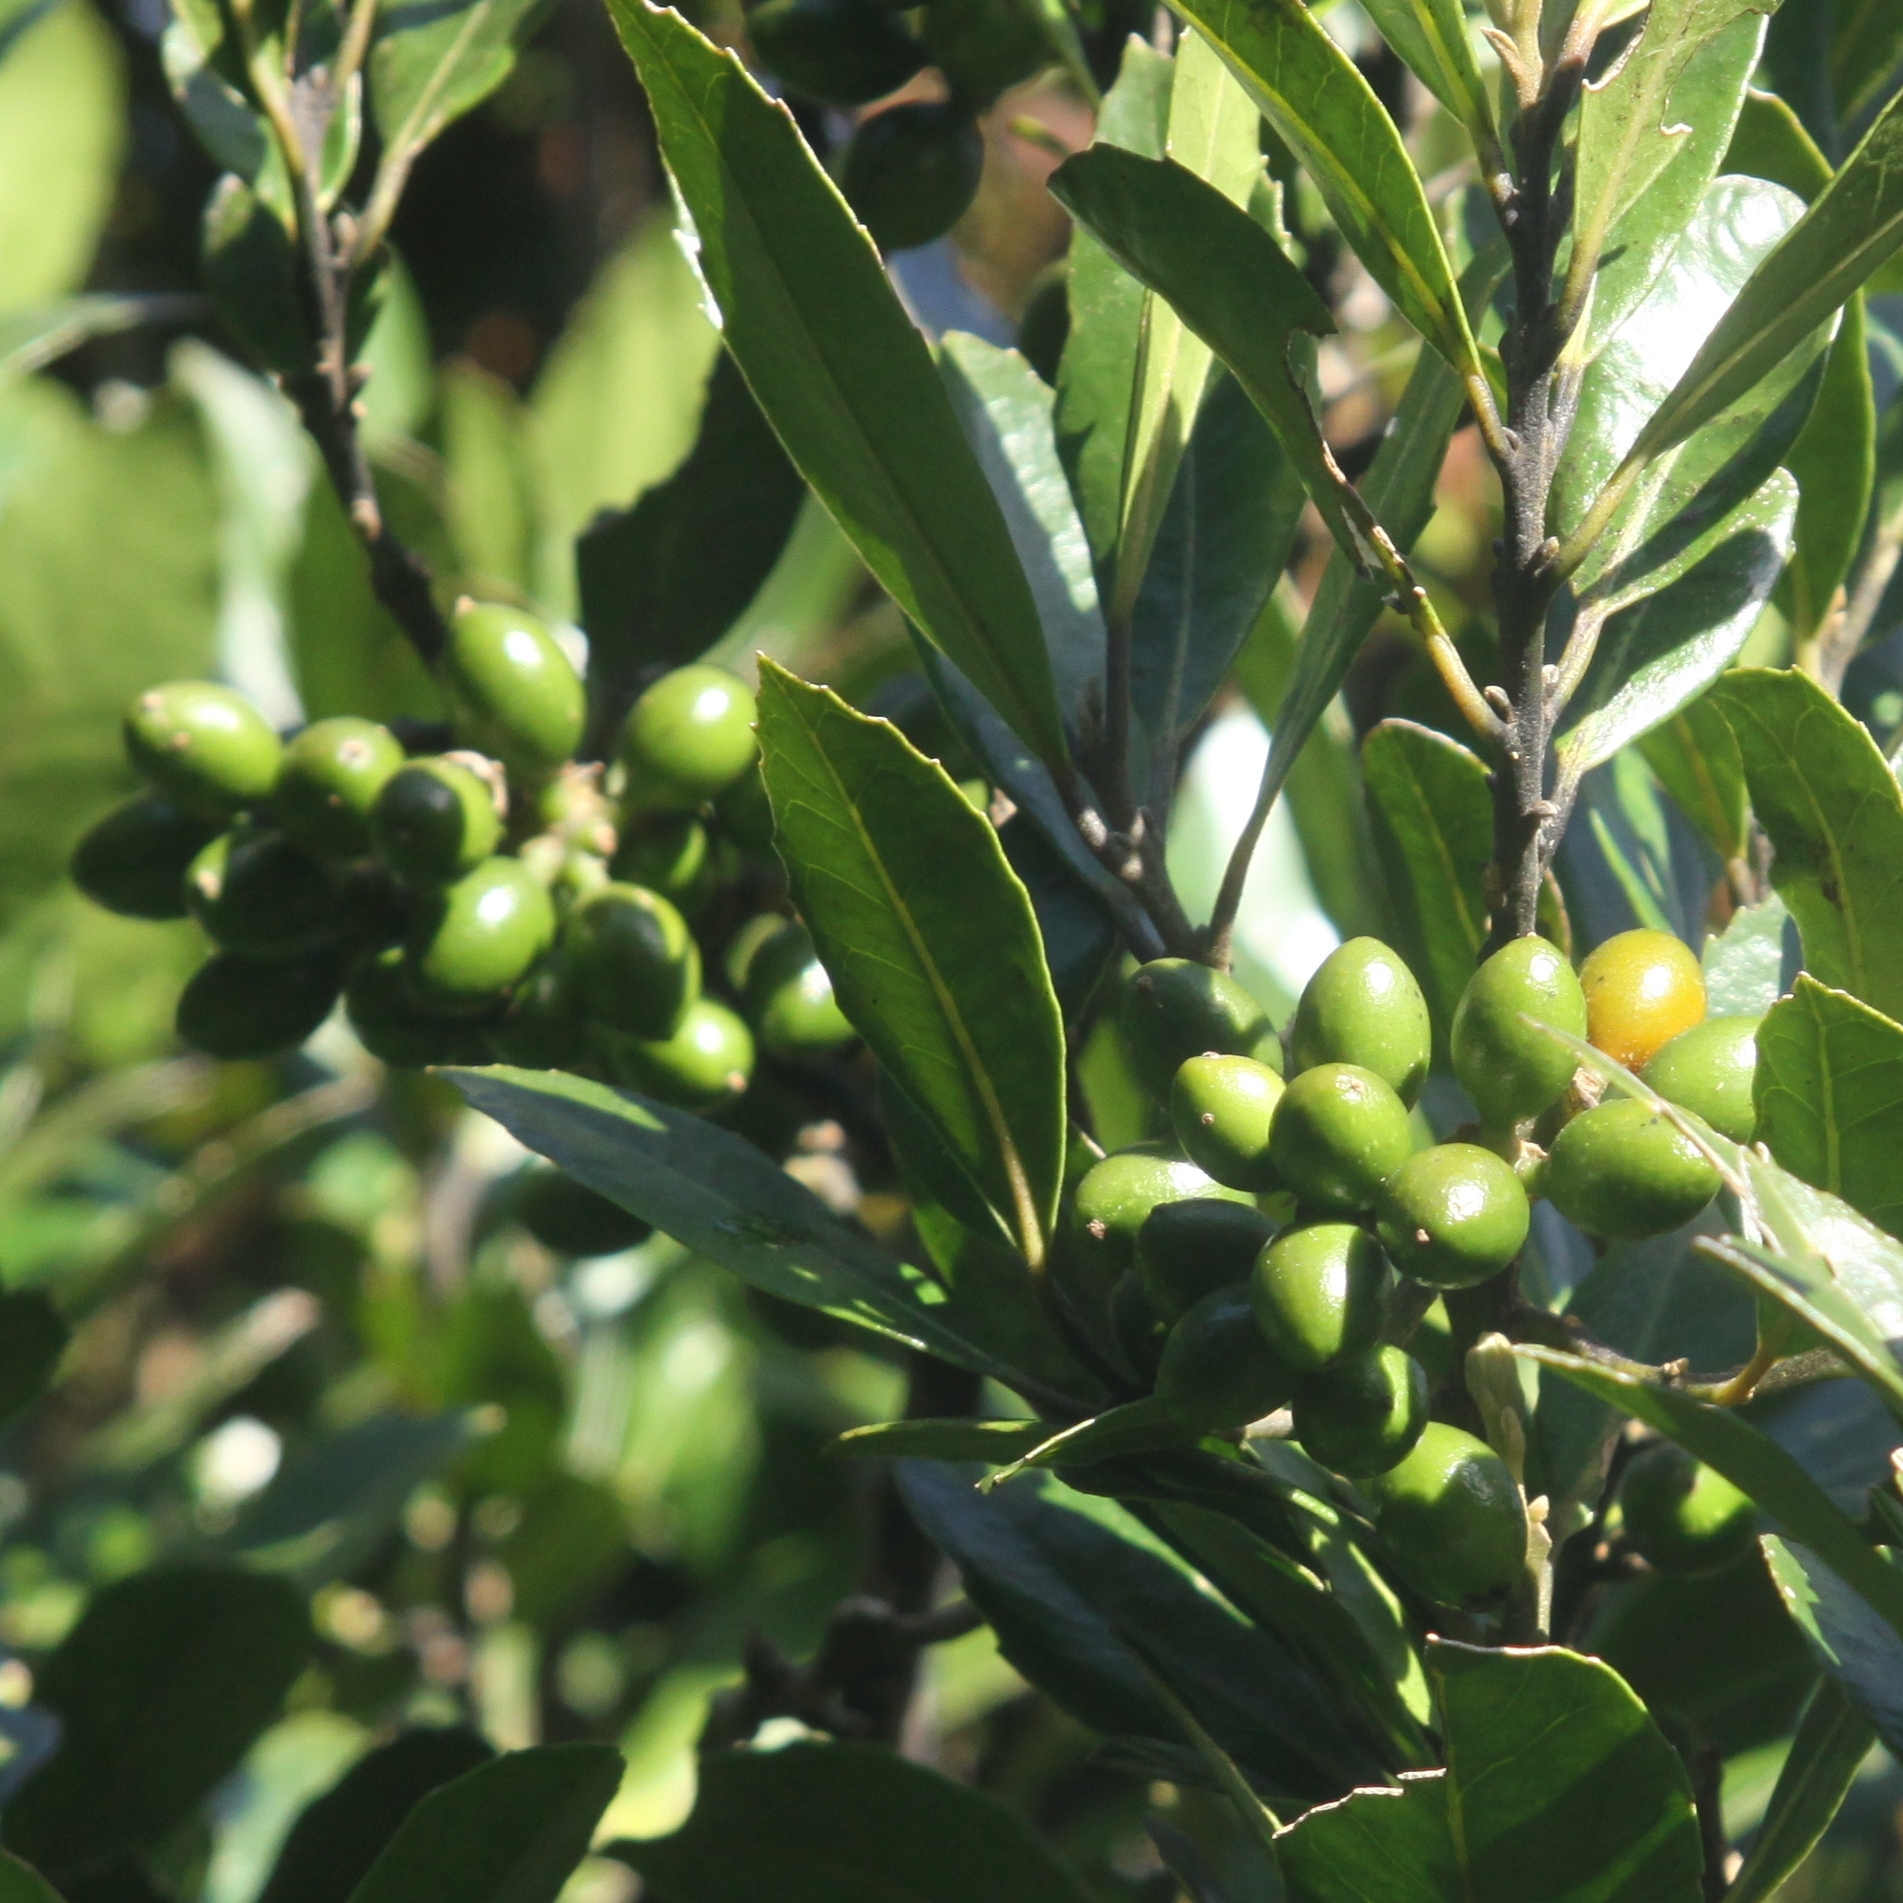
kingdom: Plantae
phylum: Tracheophyta
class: Magnoliopsida
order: Laurales
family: Monimiaceae
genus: Hedycarya
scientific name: Hedycarya arborea
